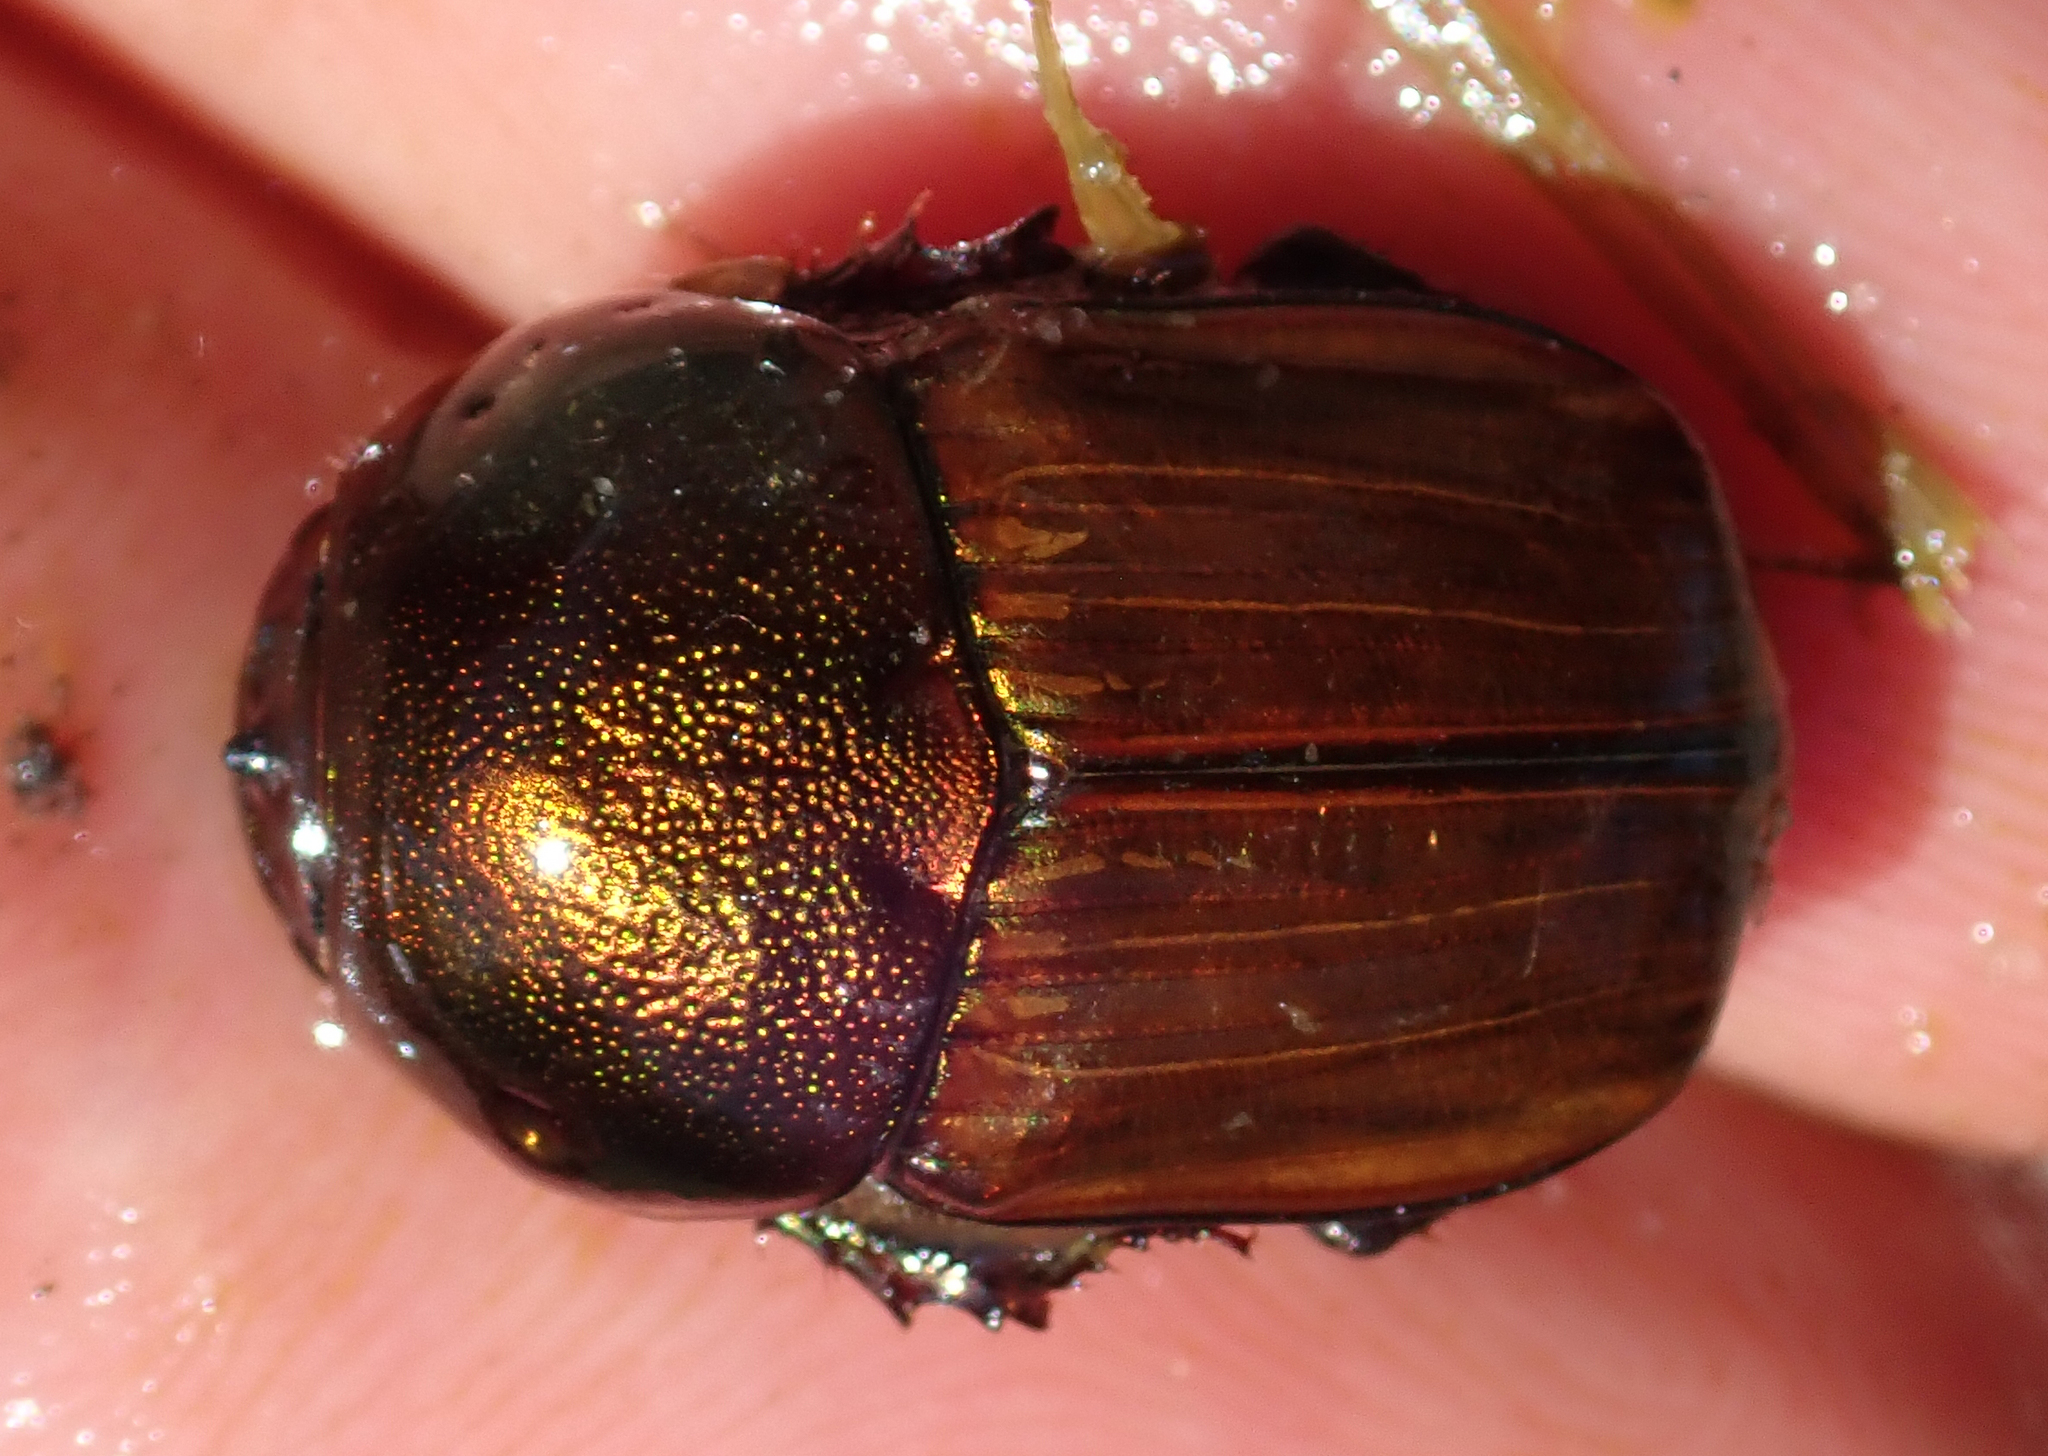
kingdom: Animalia
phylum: Arthropoda
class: Insecta
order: Coleoptera
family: Scarabaeidae
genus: Onitis
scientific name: Onitis alexis
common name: Alexis dung beetle
